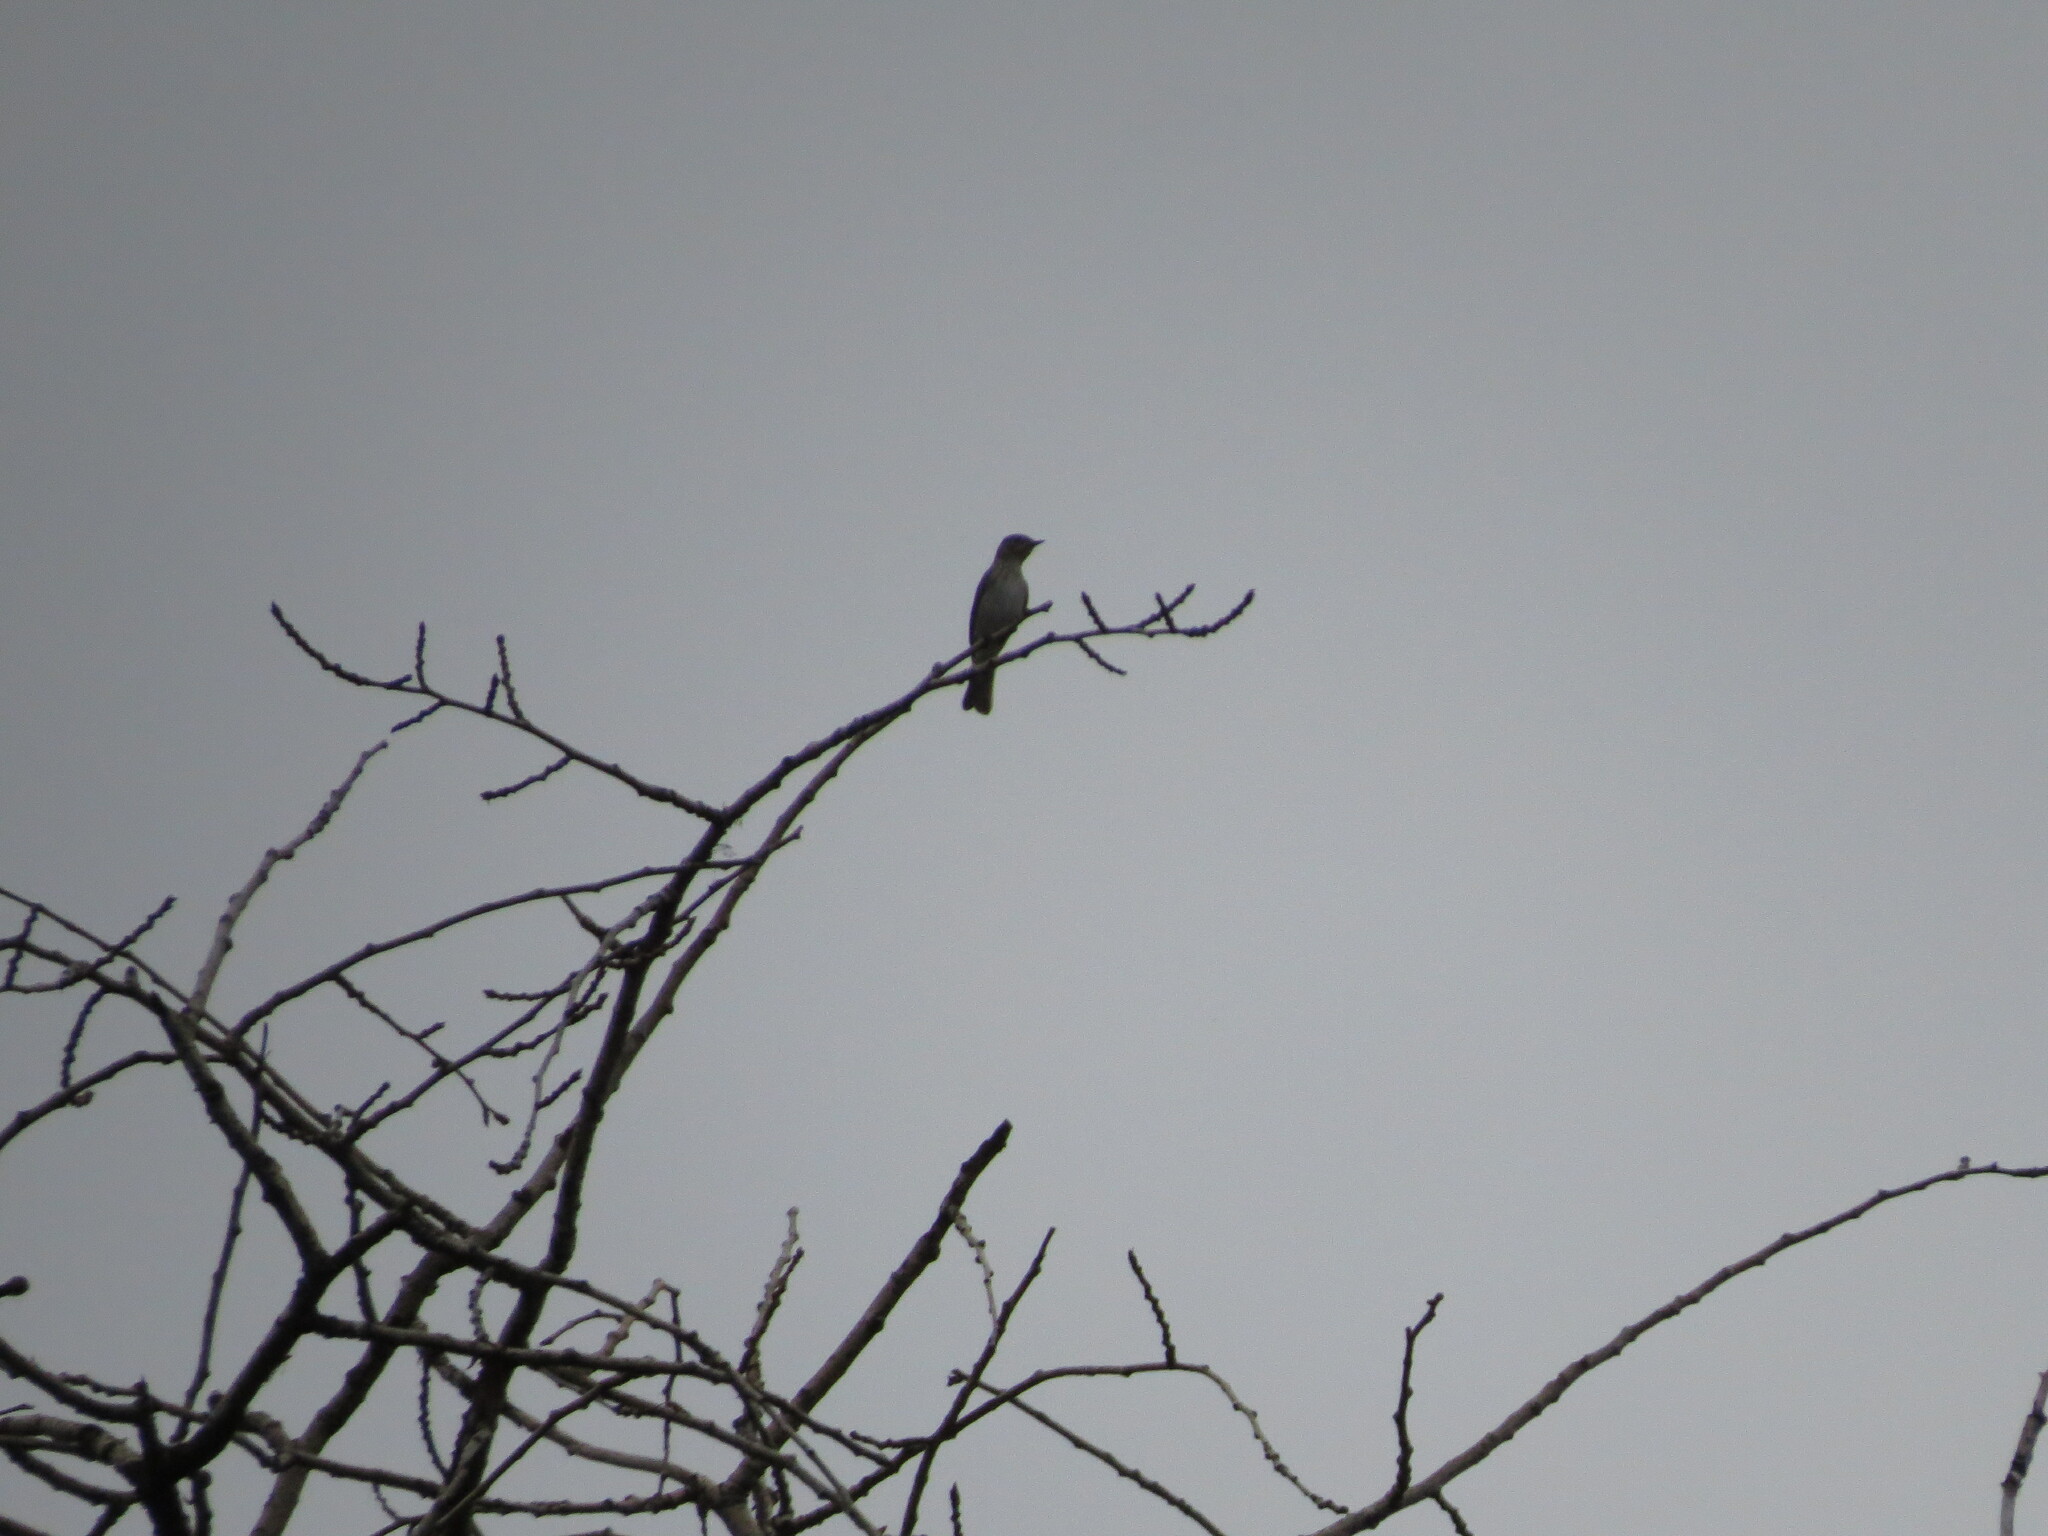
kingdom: Animalia
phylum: Chordata
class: Aves
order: Passeriformes
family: Muscicapidae
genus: Muscicapa
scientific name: Muscicapa striata
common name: Spotted flycatcher
